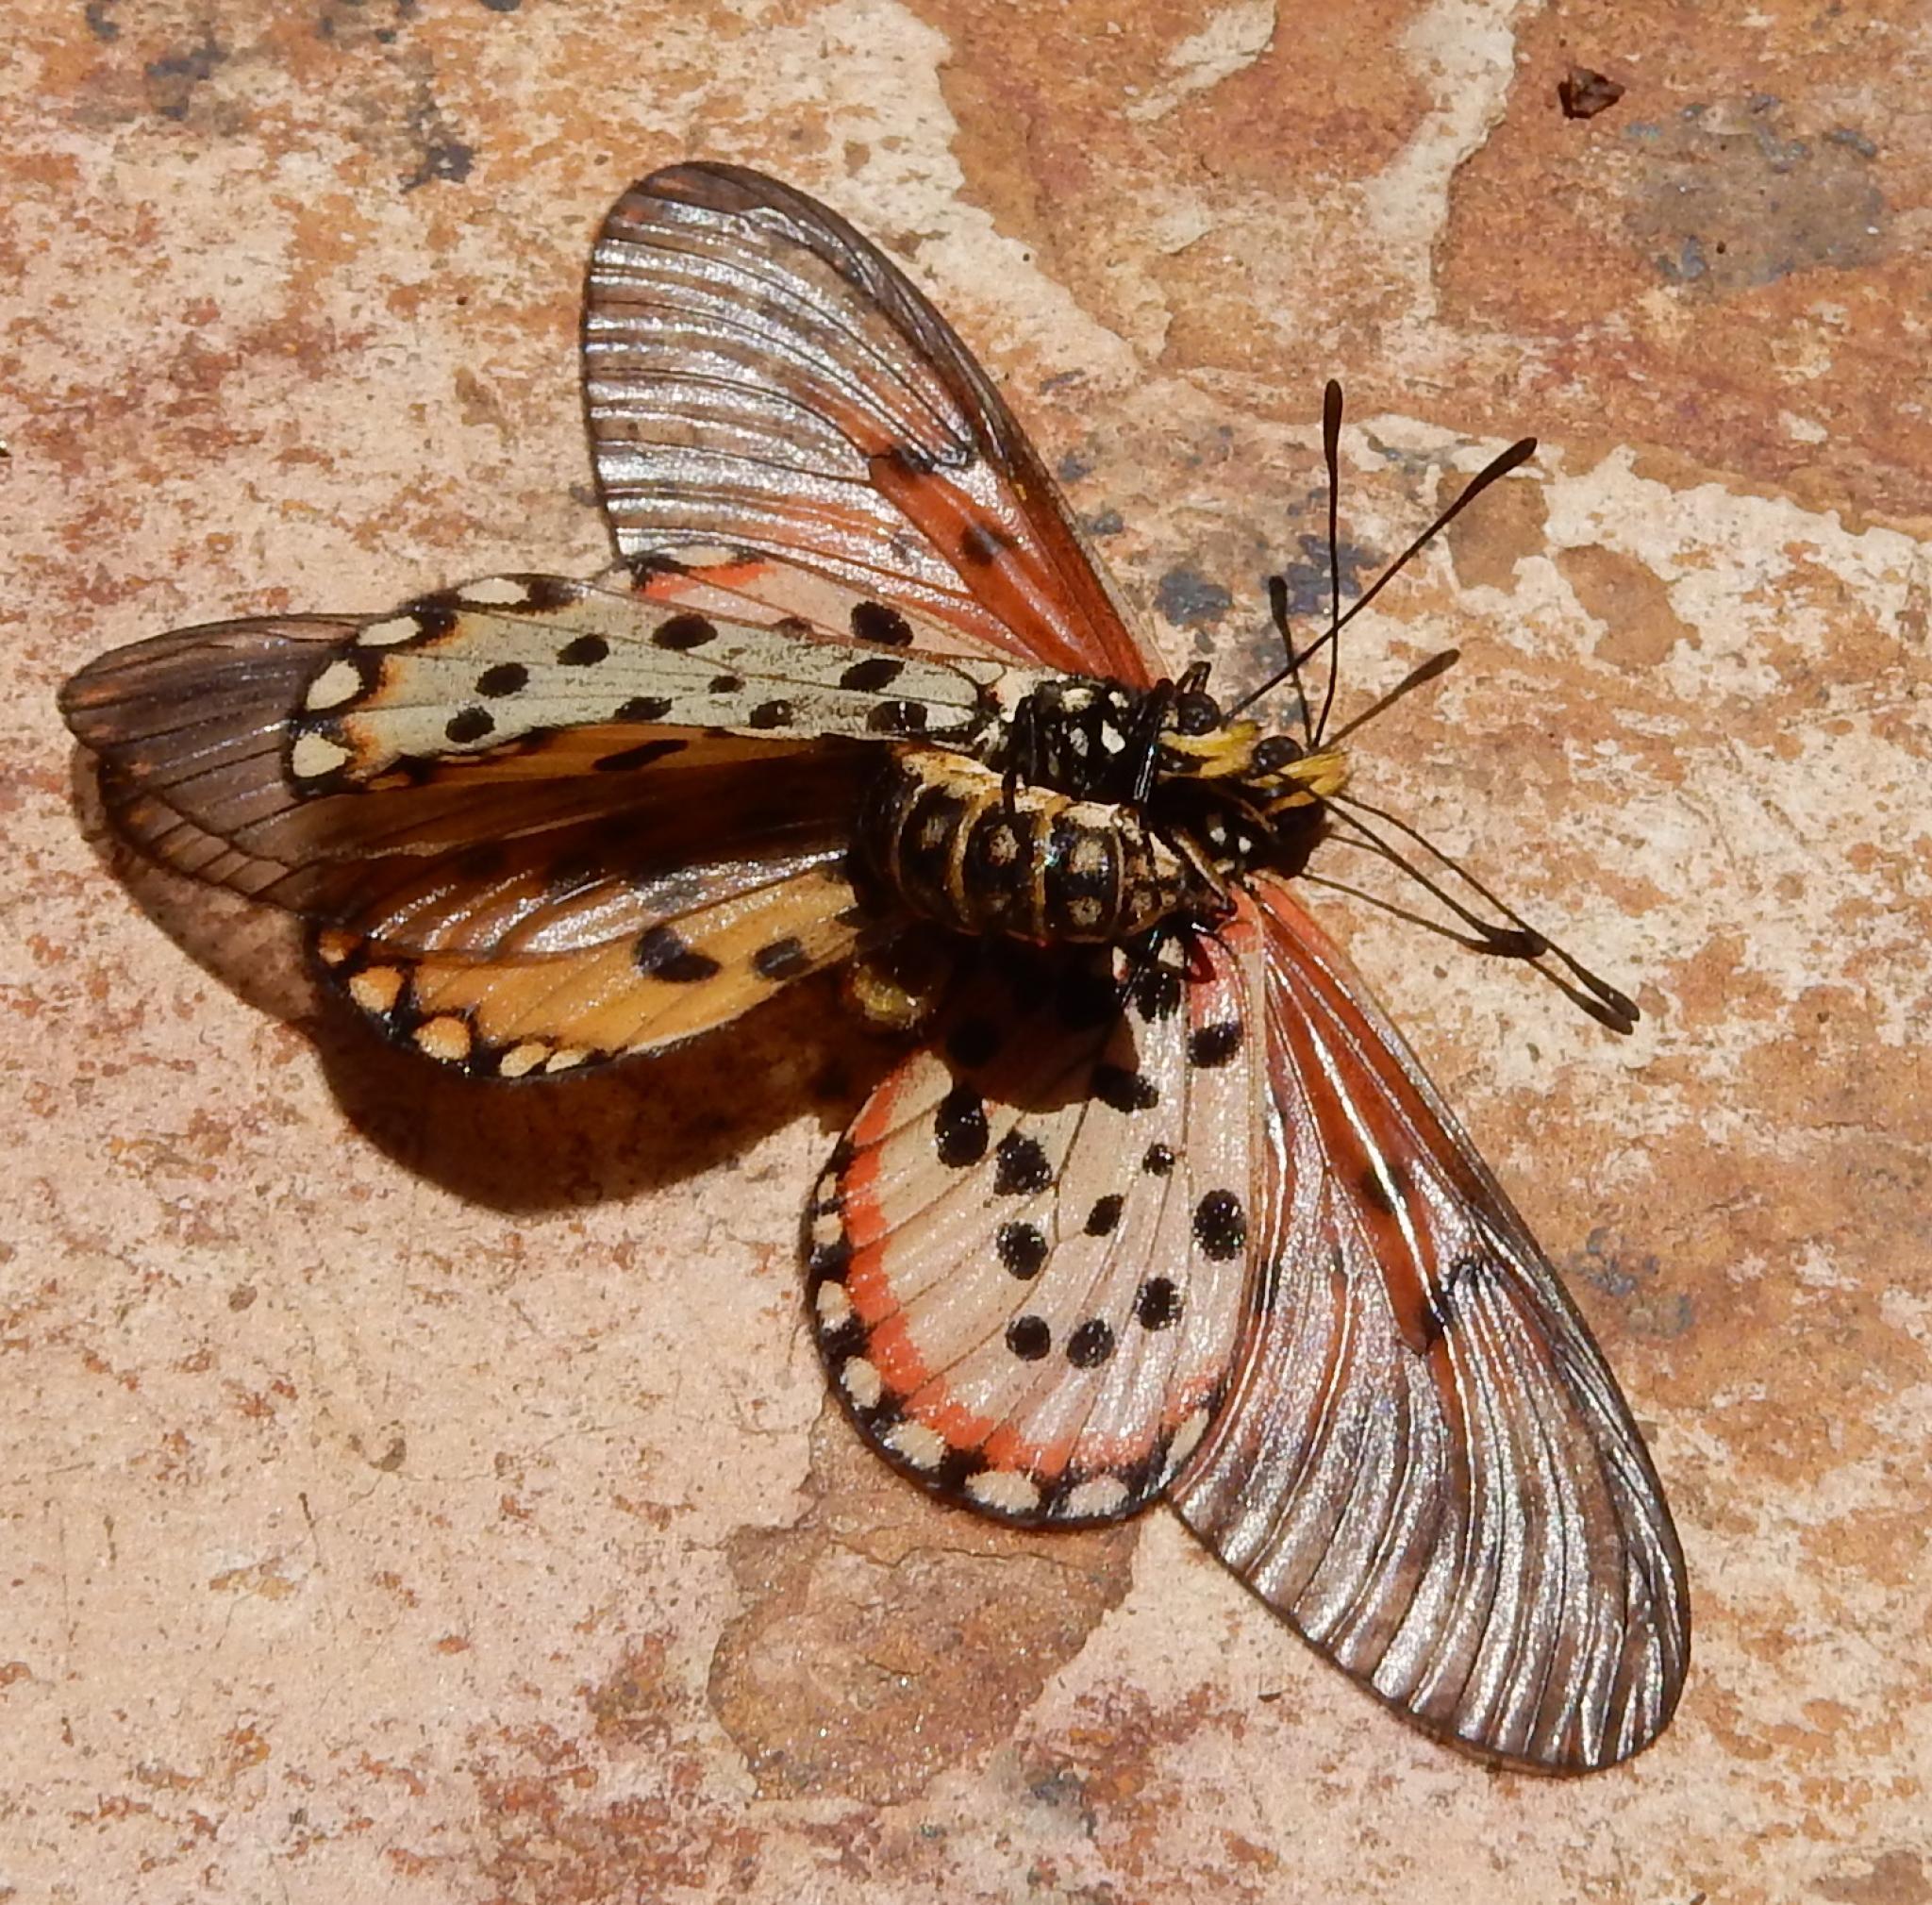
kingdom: Animalia
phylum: Arthropoda
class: Insecta
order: Lepidoptera
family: Nymphalidae
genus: Acraea
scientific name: Acraea horta
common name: Garden acraea
